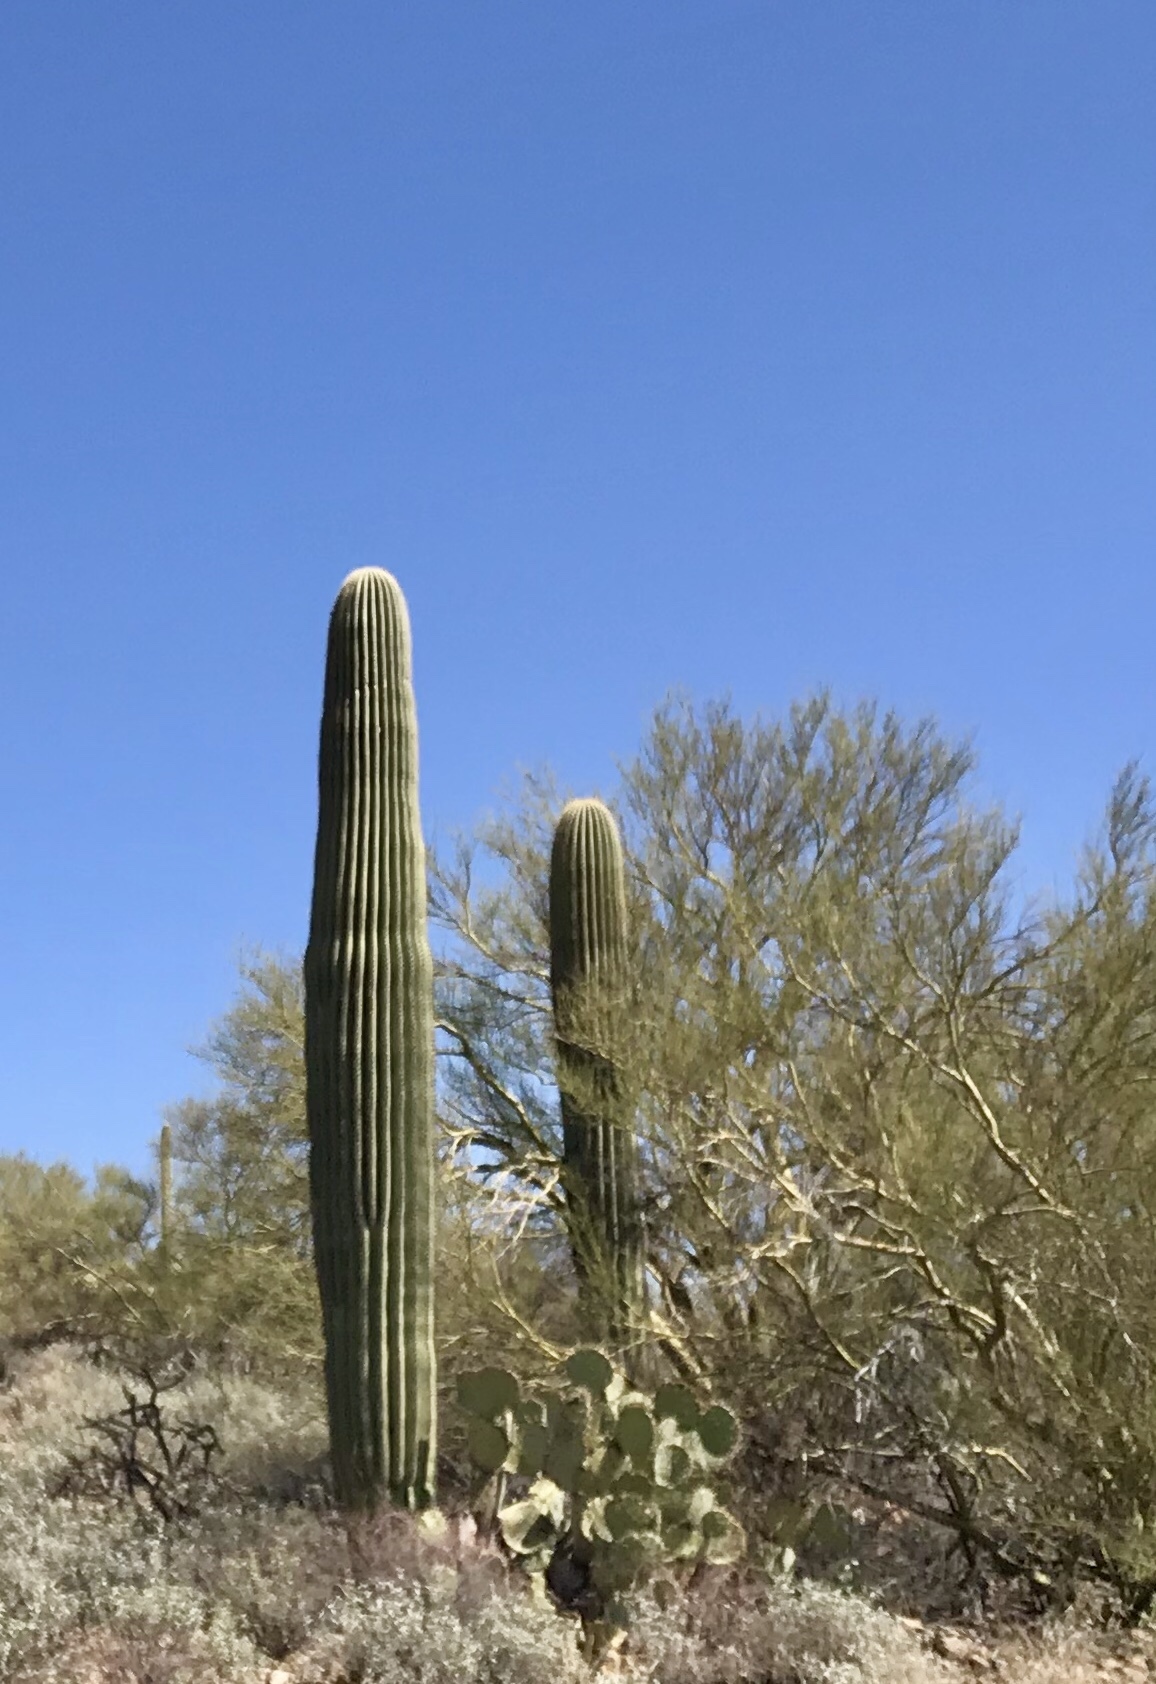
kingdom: Plantae
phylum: Tracheophyta
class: Magnoliopsida
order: Caryophyllales
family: Cactaceae
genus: Carnegiea
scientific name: Carnegiea gigantea
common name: Saguaro
